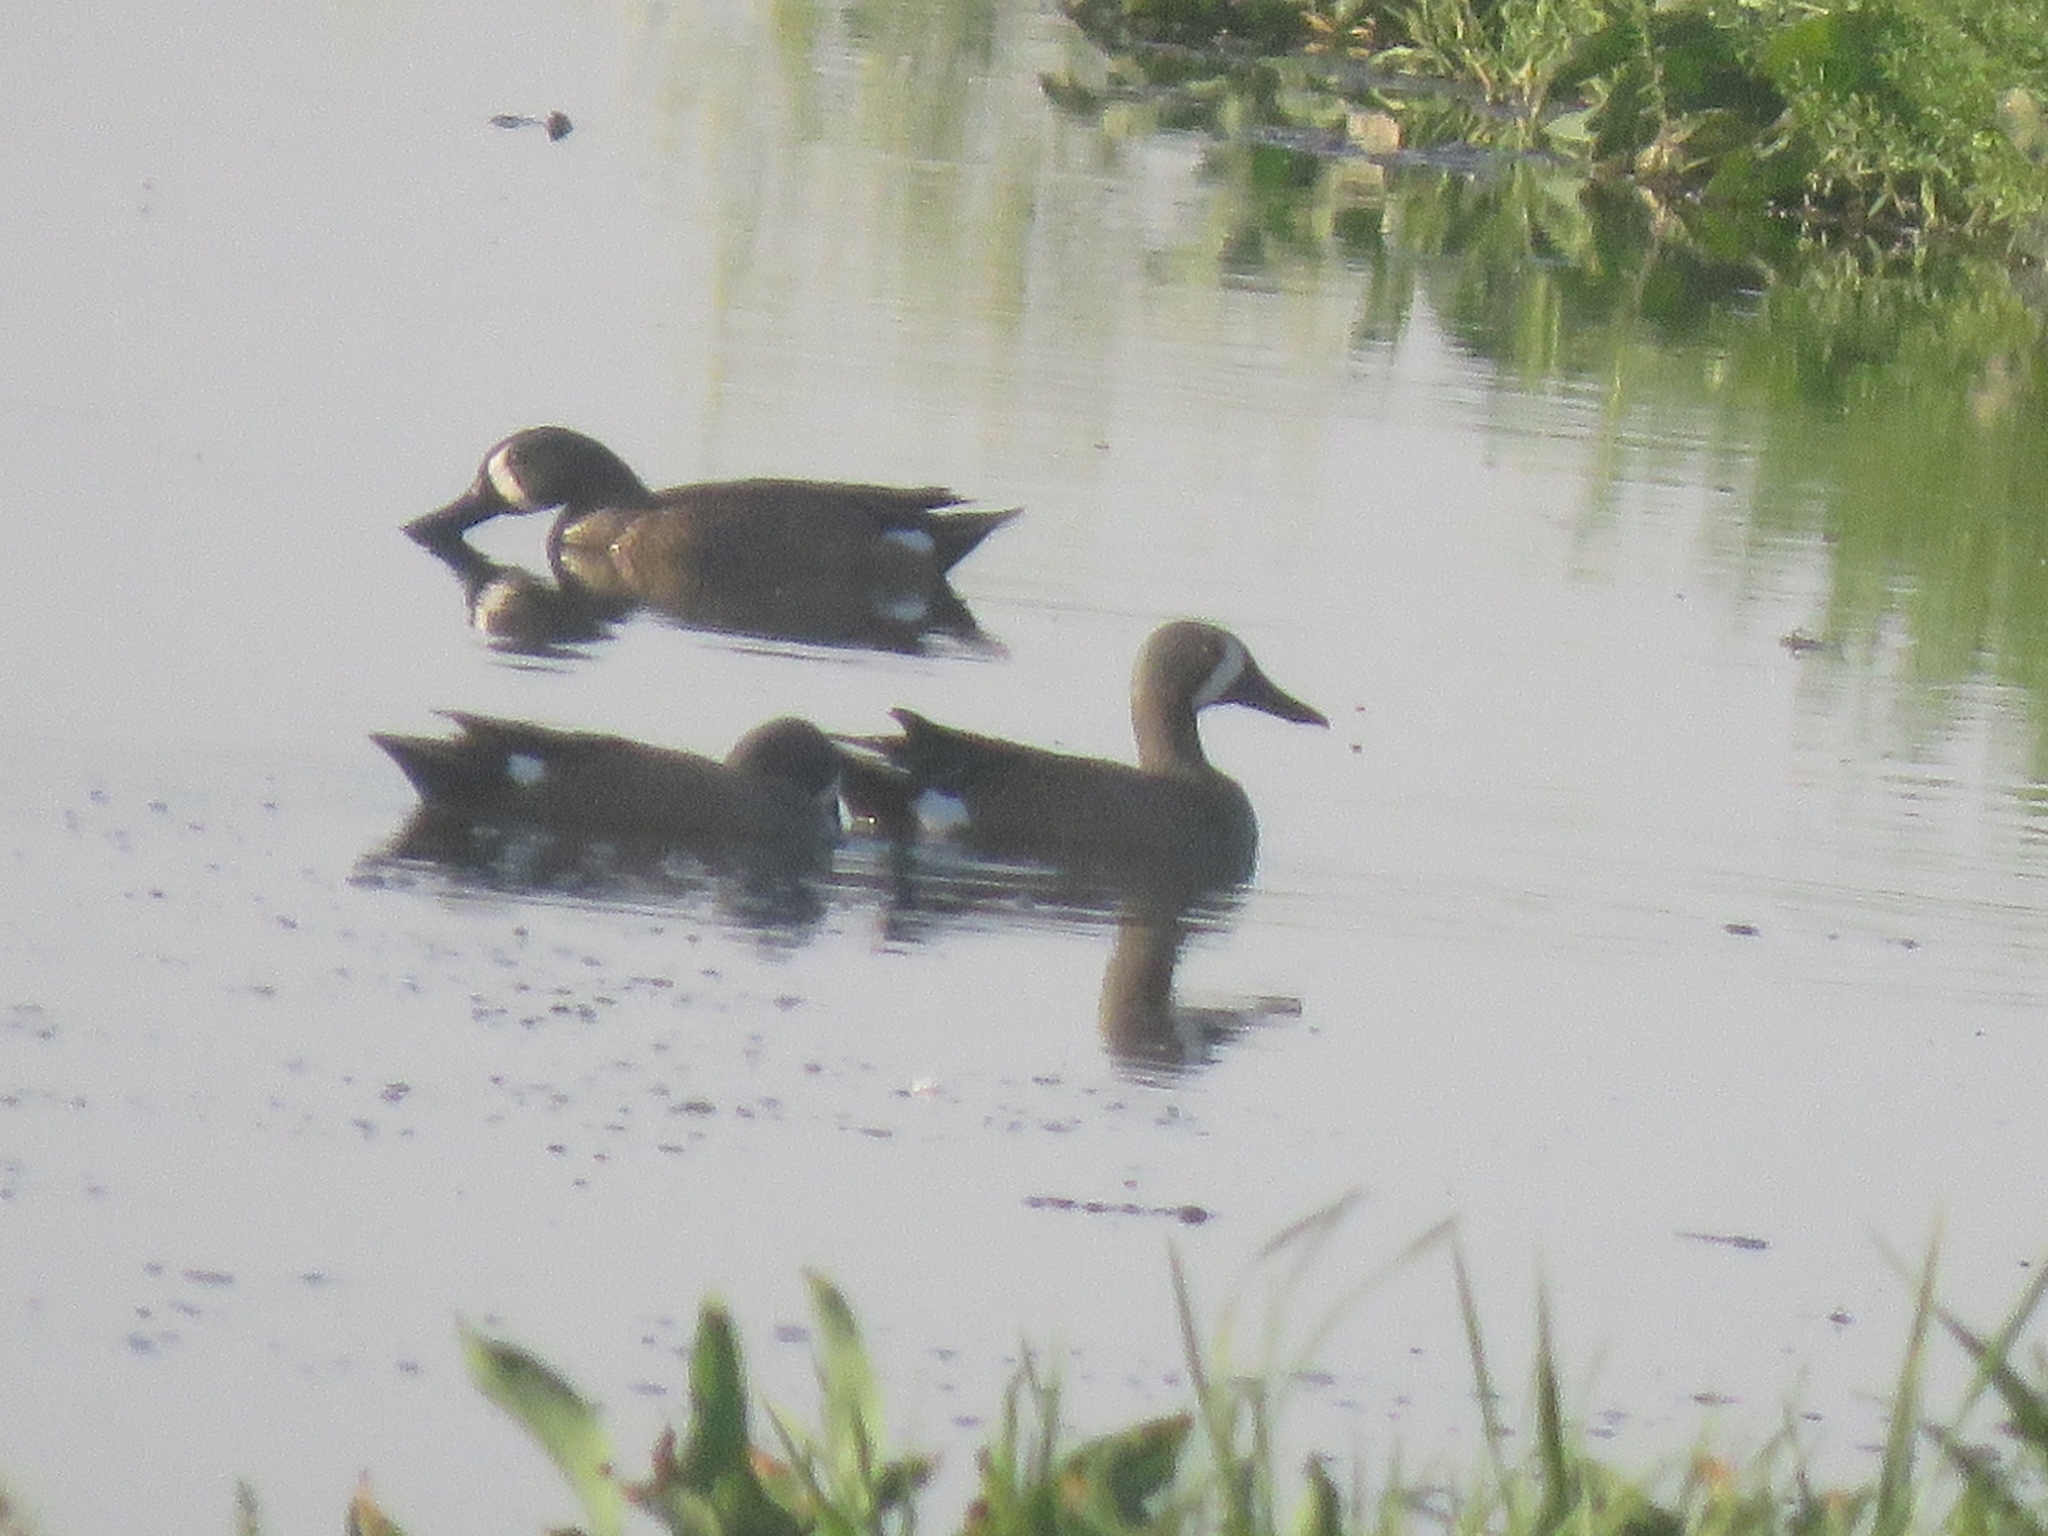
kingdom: Animalia
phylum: Chordata
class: Aves
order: Anseriformes
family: Anatidae
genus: Spatula
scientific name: Spatula discors
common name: Blue-winged teal
